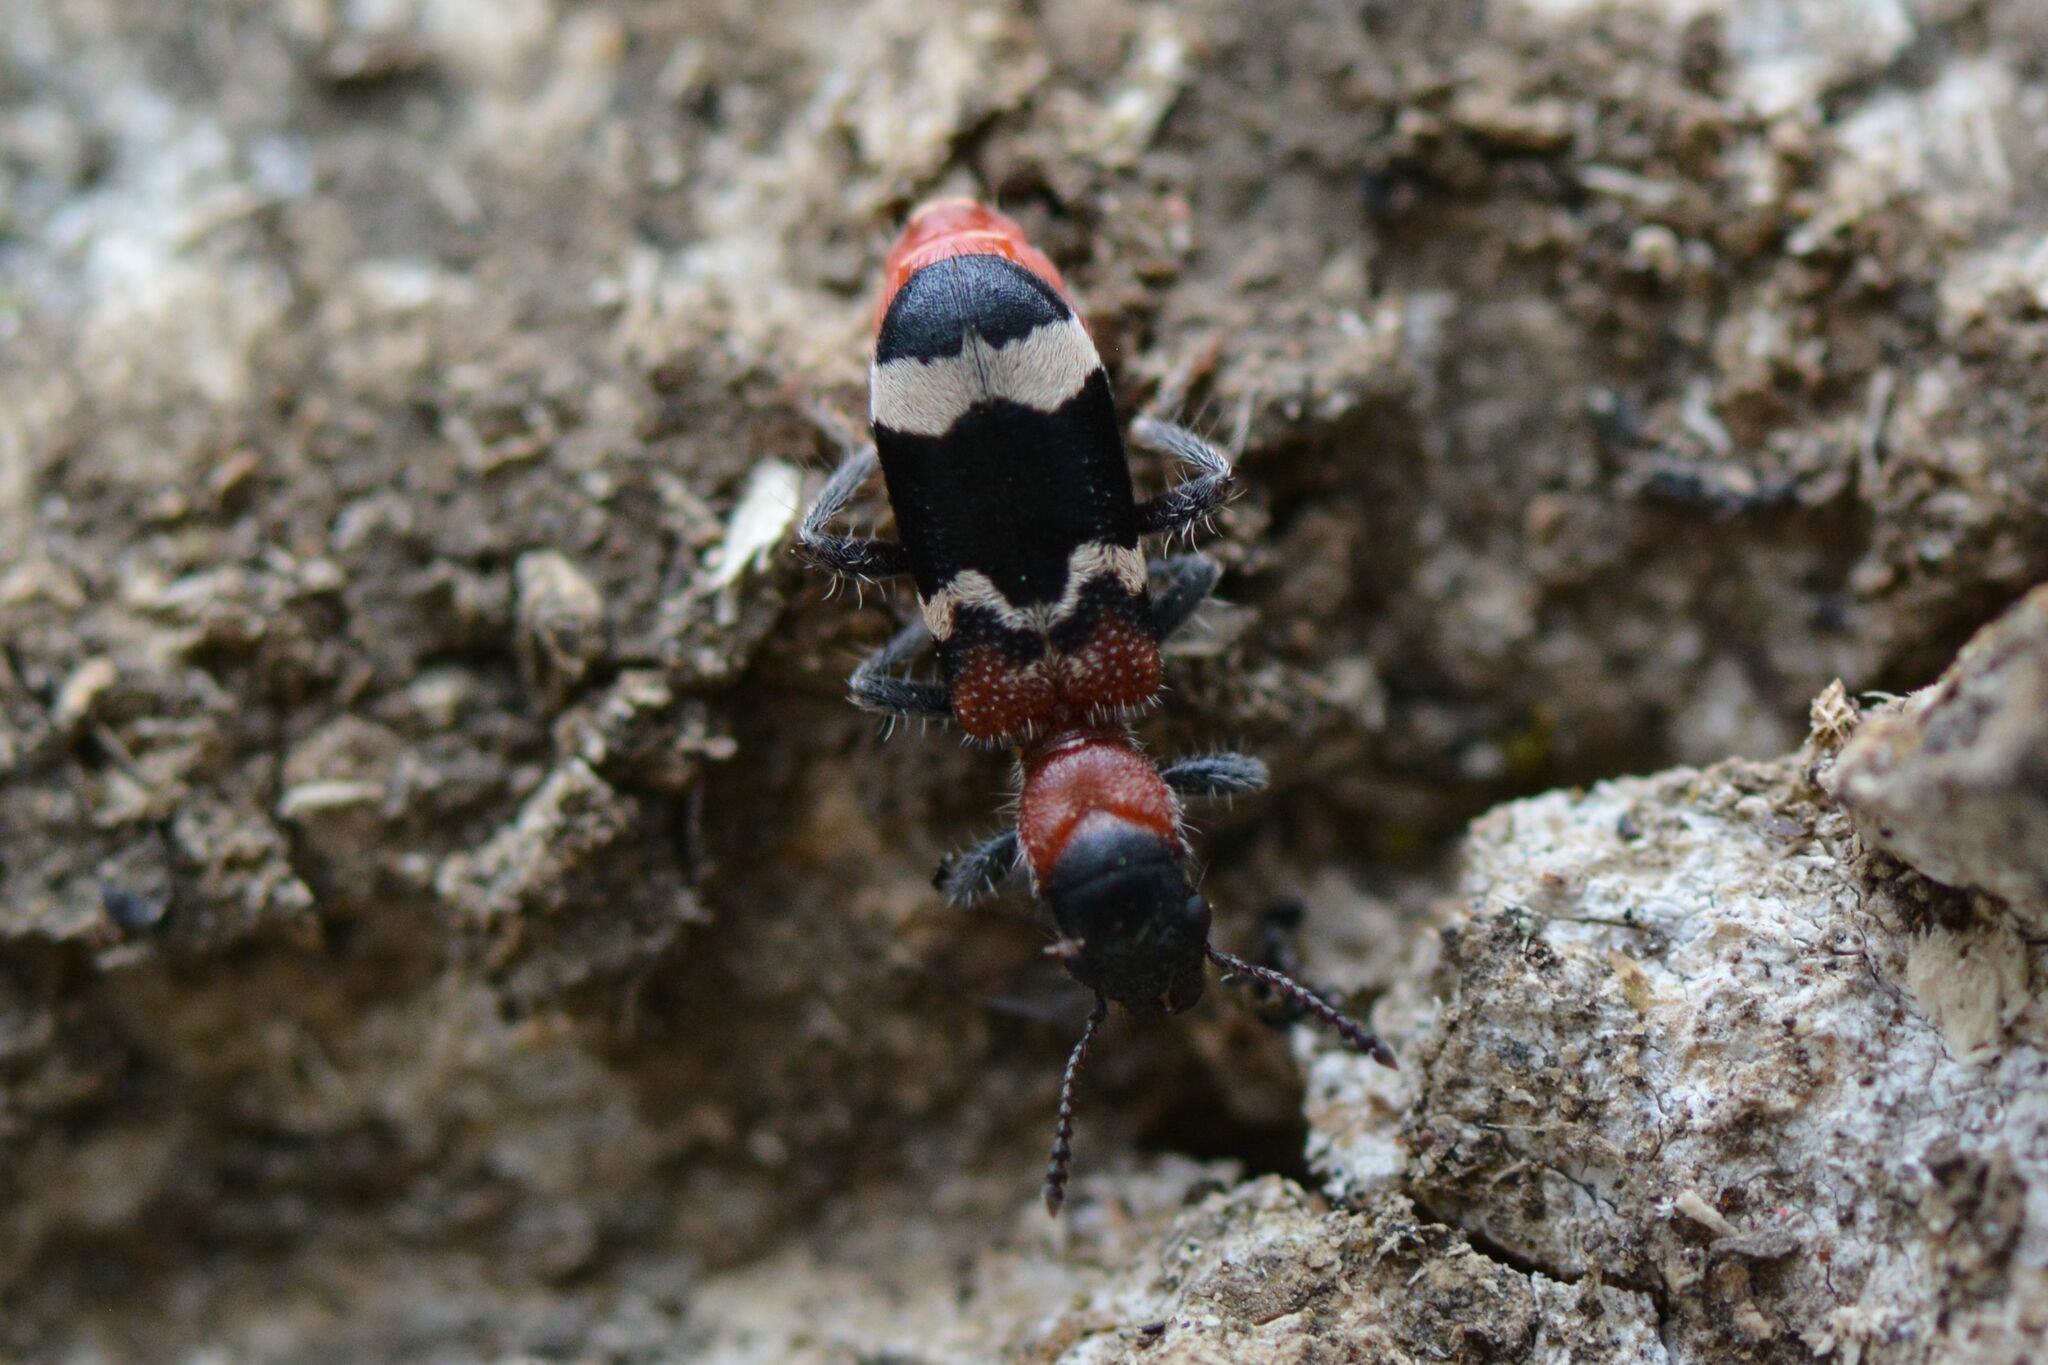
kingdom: Animalia
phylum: Arthropoda
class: Insecta
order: Coleoptera
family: Cleridae
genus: Thanasimus
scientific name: Thanasimus formicarius
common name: Ant beetle
